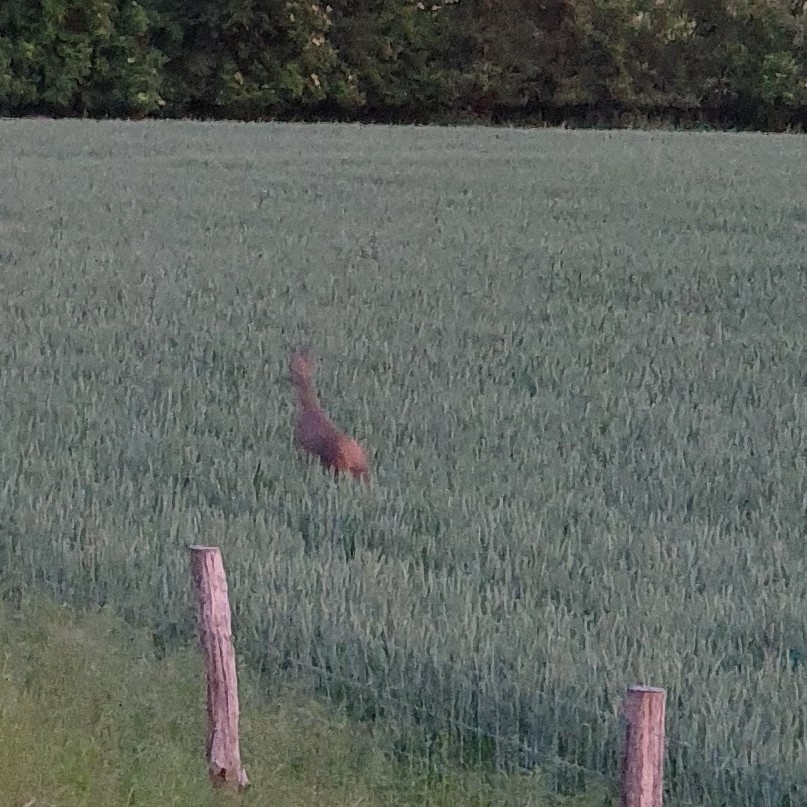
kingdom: Animalia
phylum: Chordata
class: Mammalia
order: Artiodactyla
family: Cervidae
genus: Capreolus
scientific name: Capreolus capreolus
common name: Western roe deer
